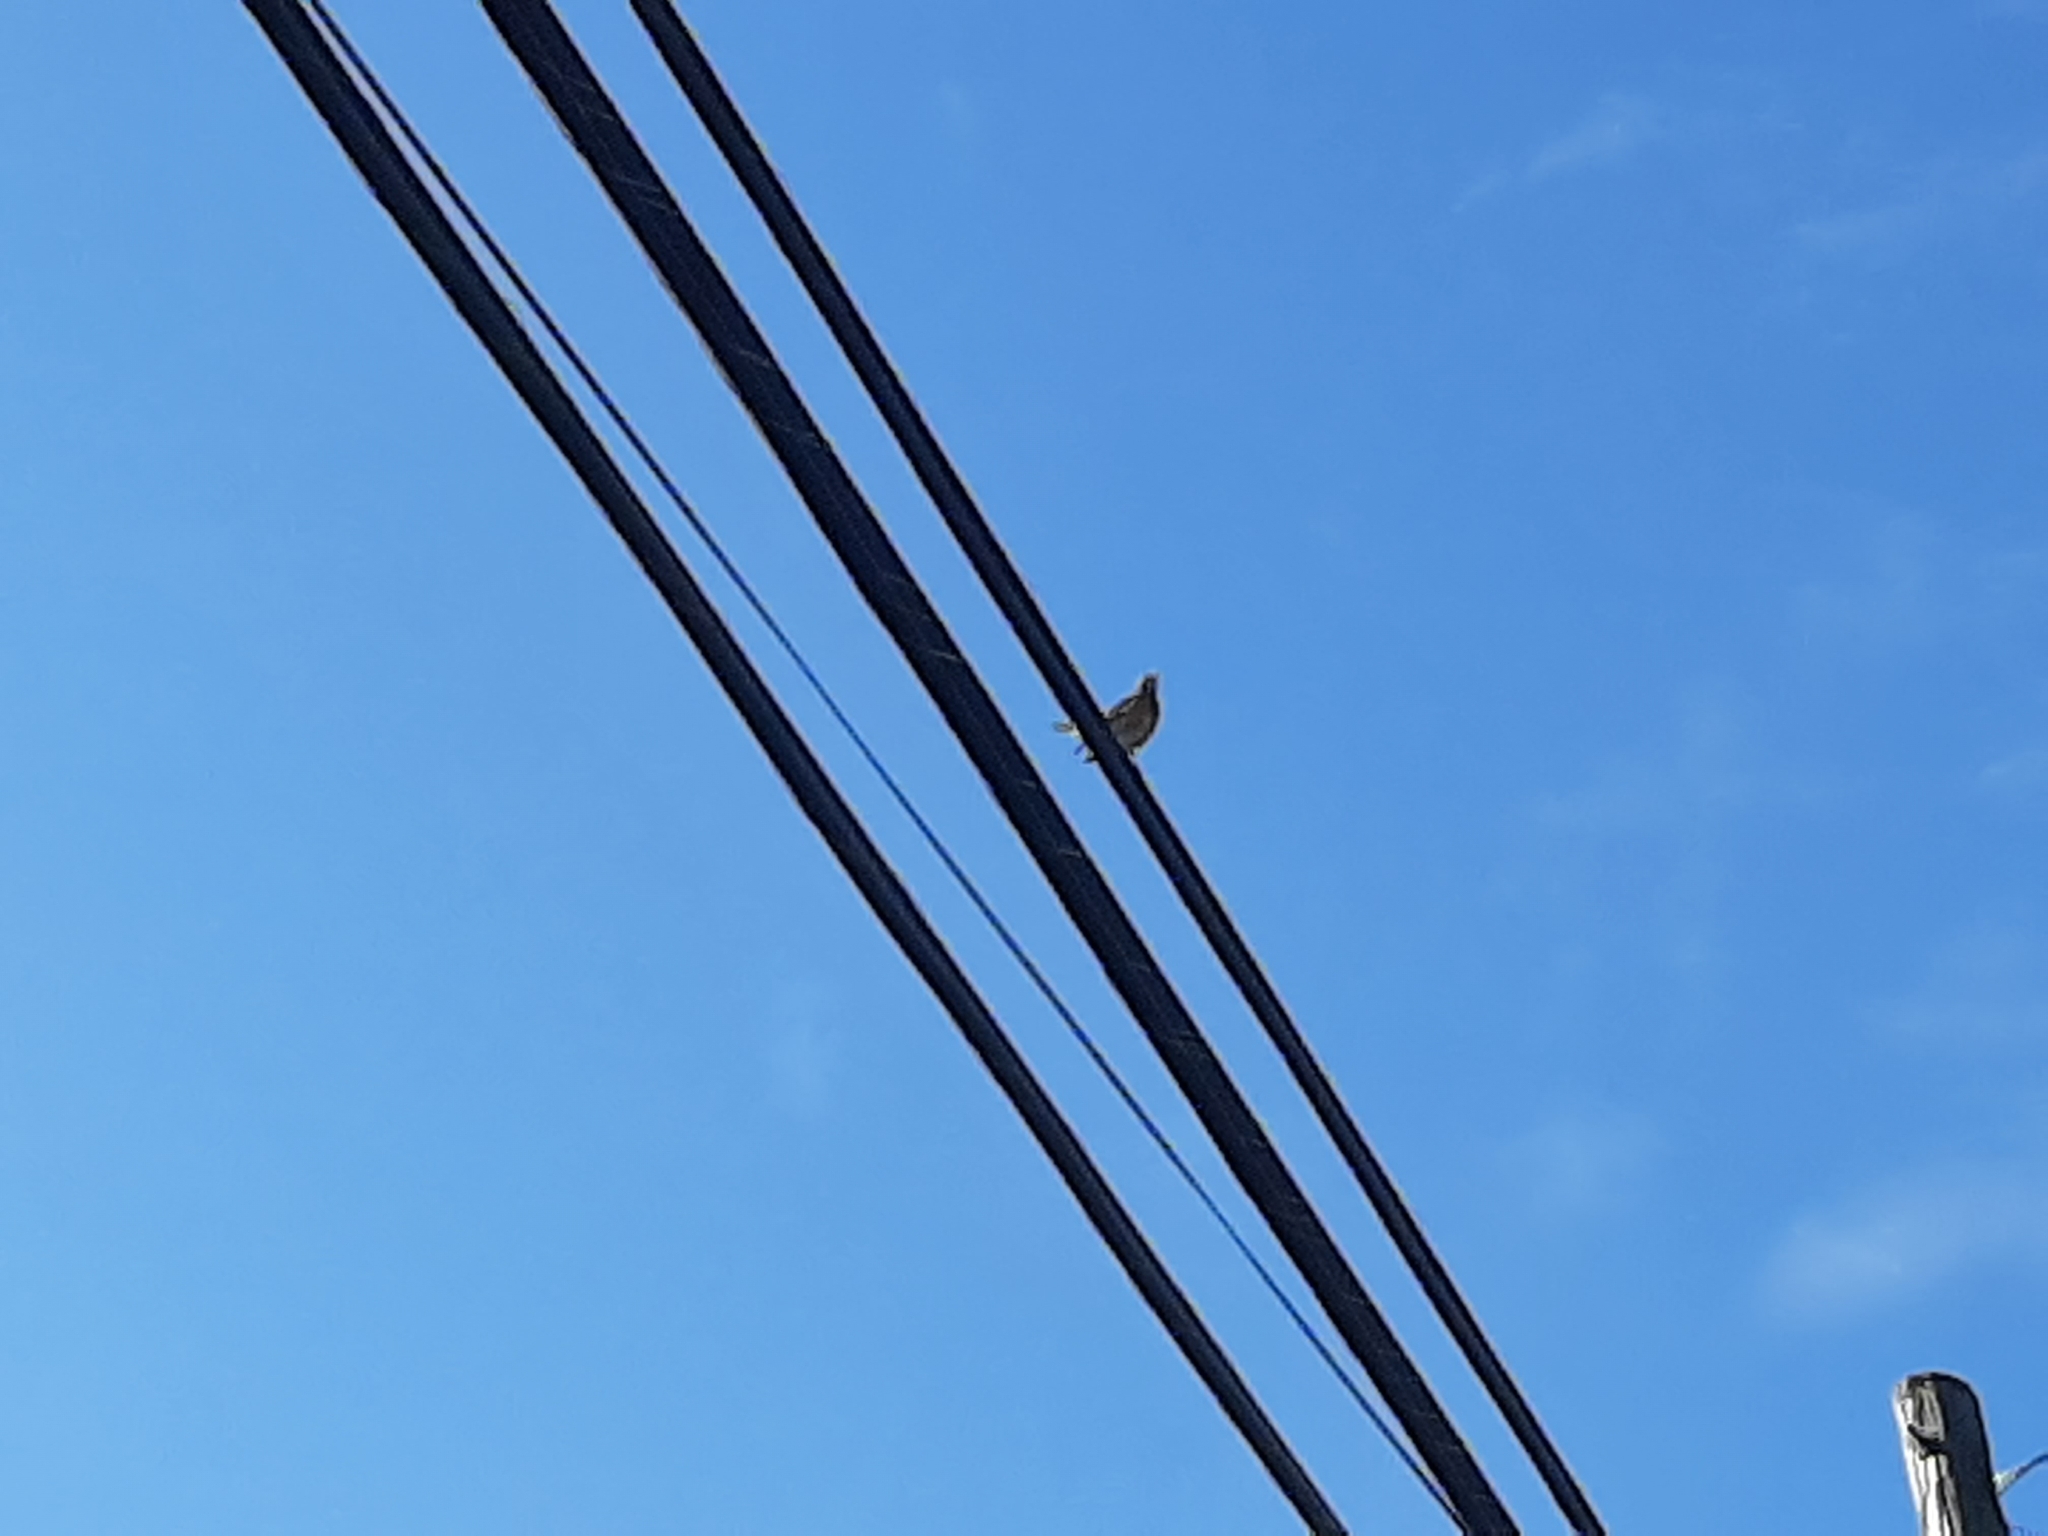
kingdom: Animalia
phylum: Chordata
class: Aves
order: Passeriformes
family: Mimidae
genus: Mimus
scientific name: Mimus polyglottos
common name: Northern mockingbird
